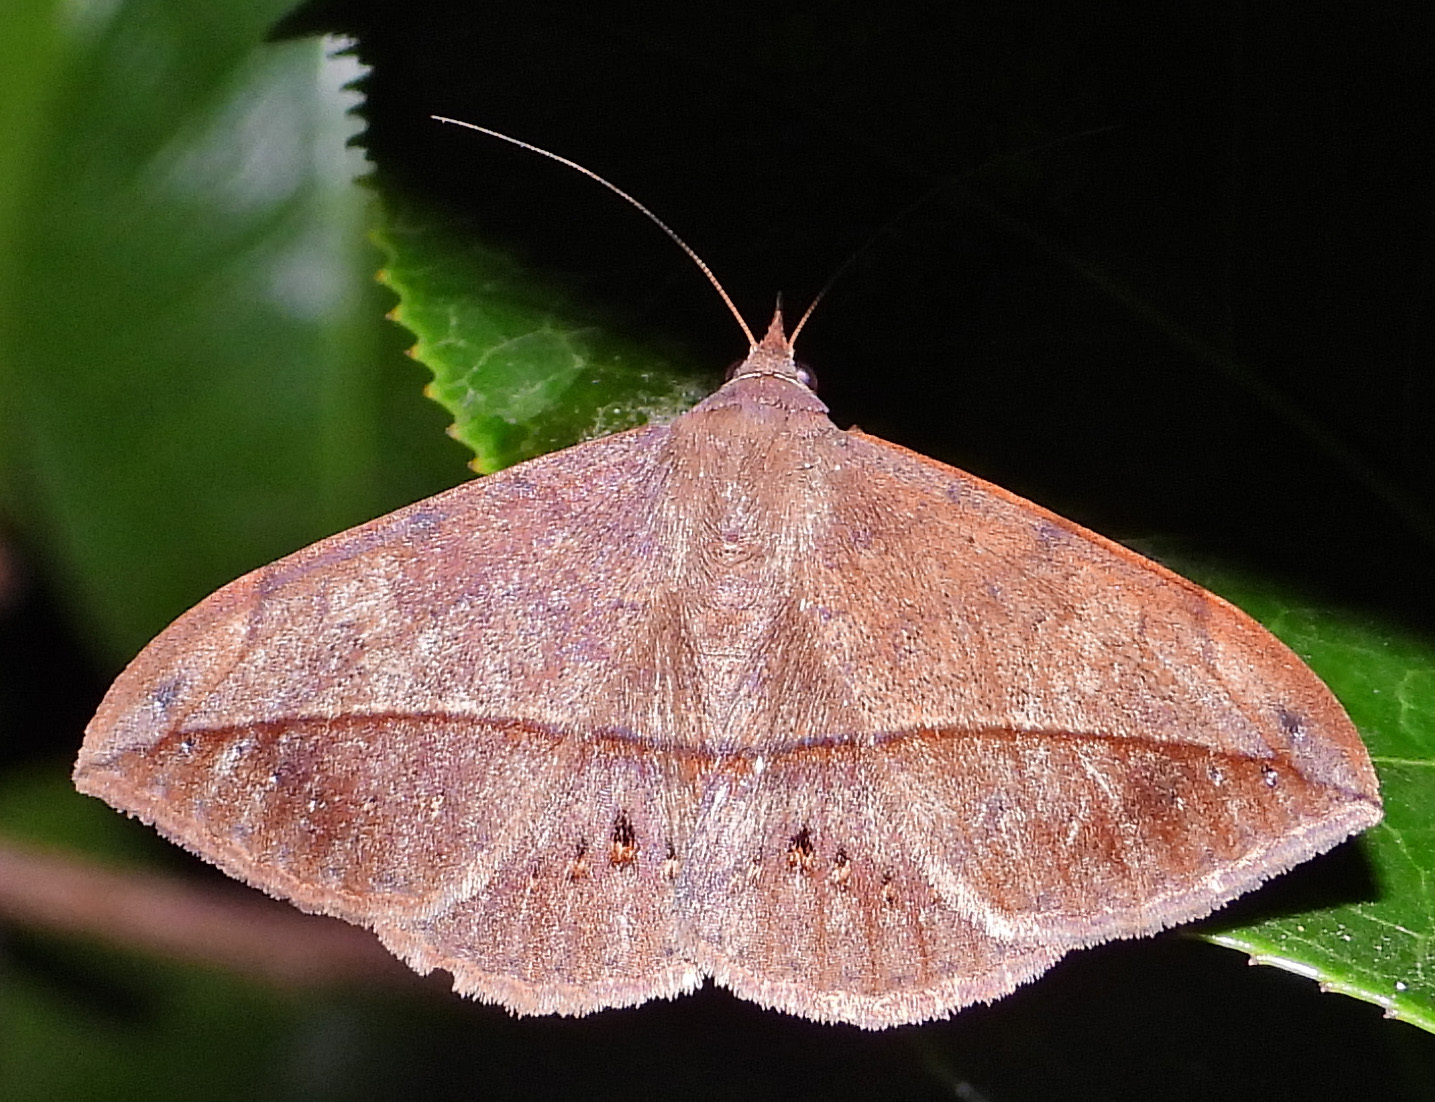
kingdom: Animalia
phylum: Arthropoda
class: Insecta
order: Lepidoptera
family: Erebidae
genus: Anticarsia
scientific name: Anticarsia gemmatalis
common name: Cutworm moth
